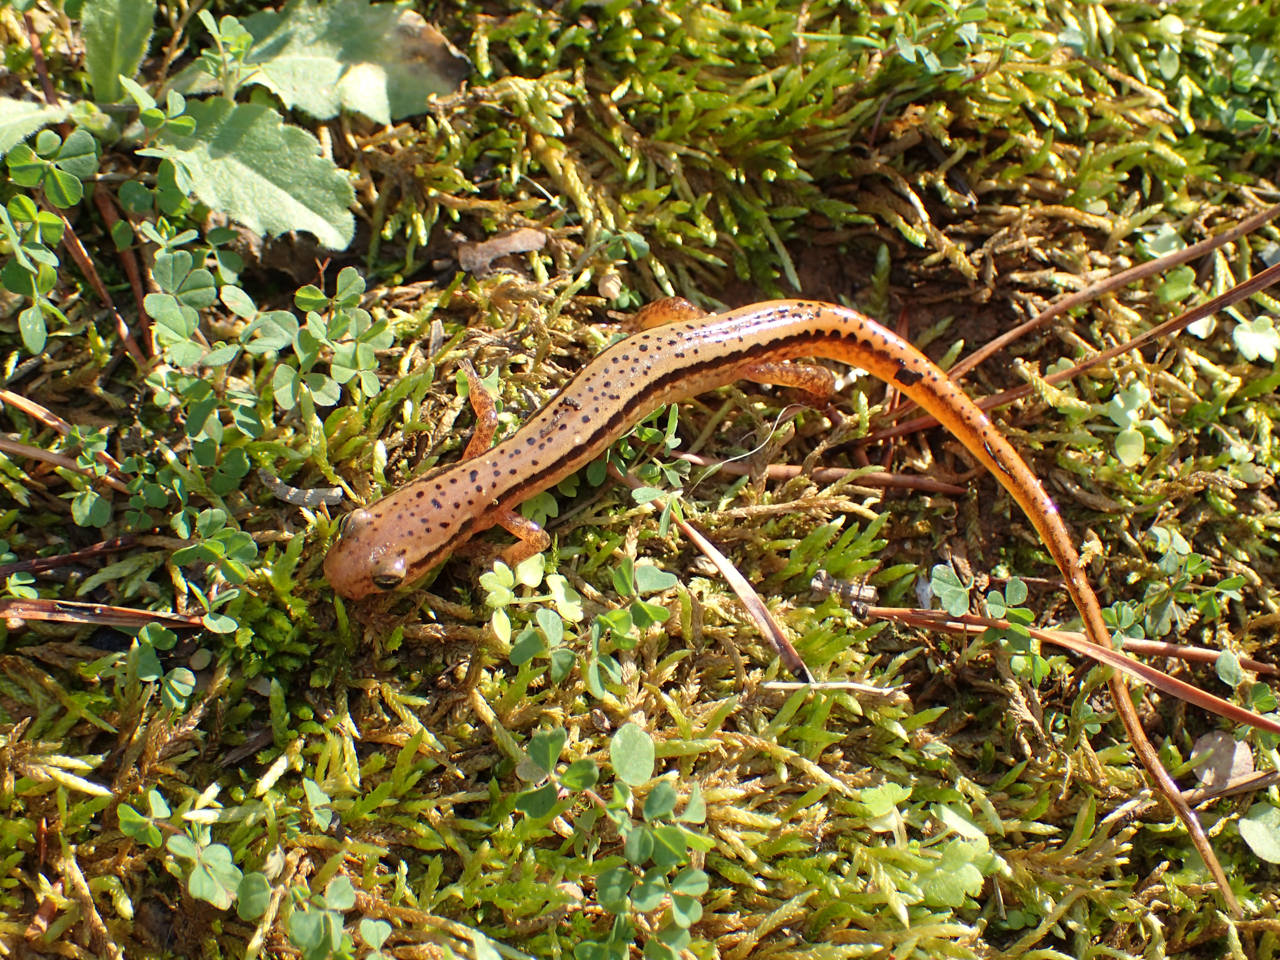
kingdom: Animalia
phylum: Chordata
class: Amphibia
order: Caudata
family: Plethodontidae
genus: Eurycea
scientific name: Eurycea cirrigera
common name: Southern two-lined salamander
